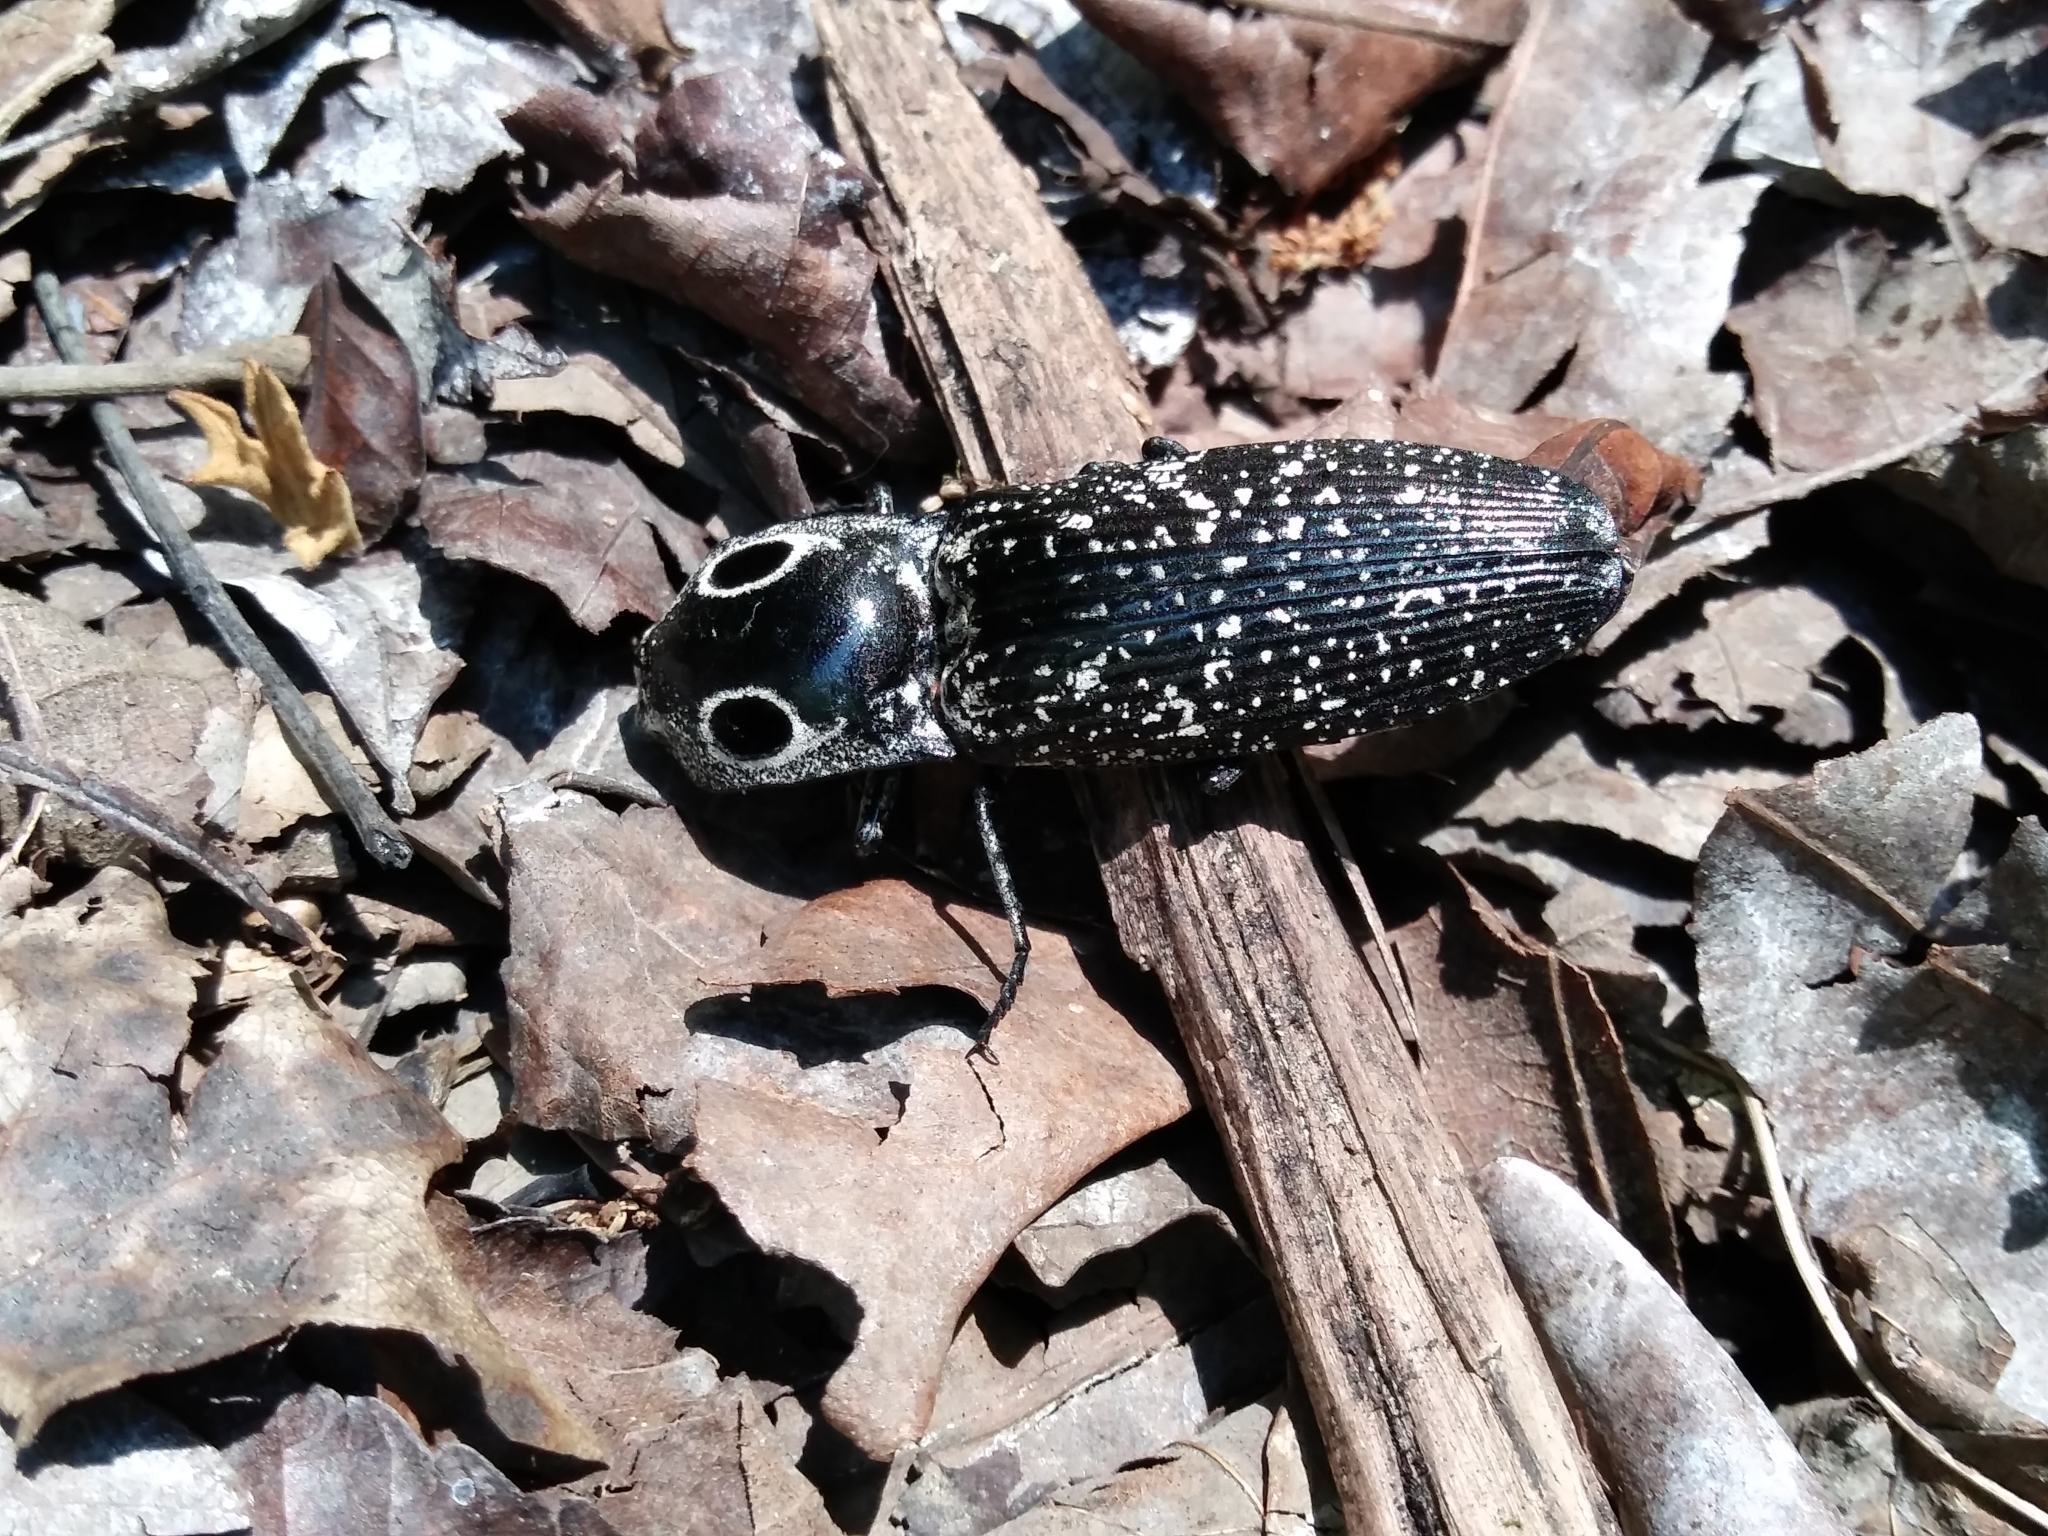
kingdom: Animalia
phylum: Arthropoda
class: Insecta
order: Coleoptera
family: Elateridae
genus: Alaus
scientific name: Alaus oculatus
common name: Eastern eyed click beetle
